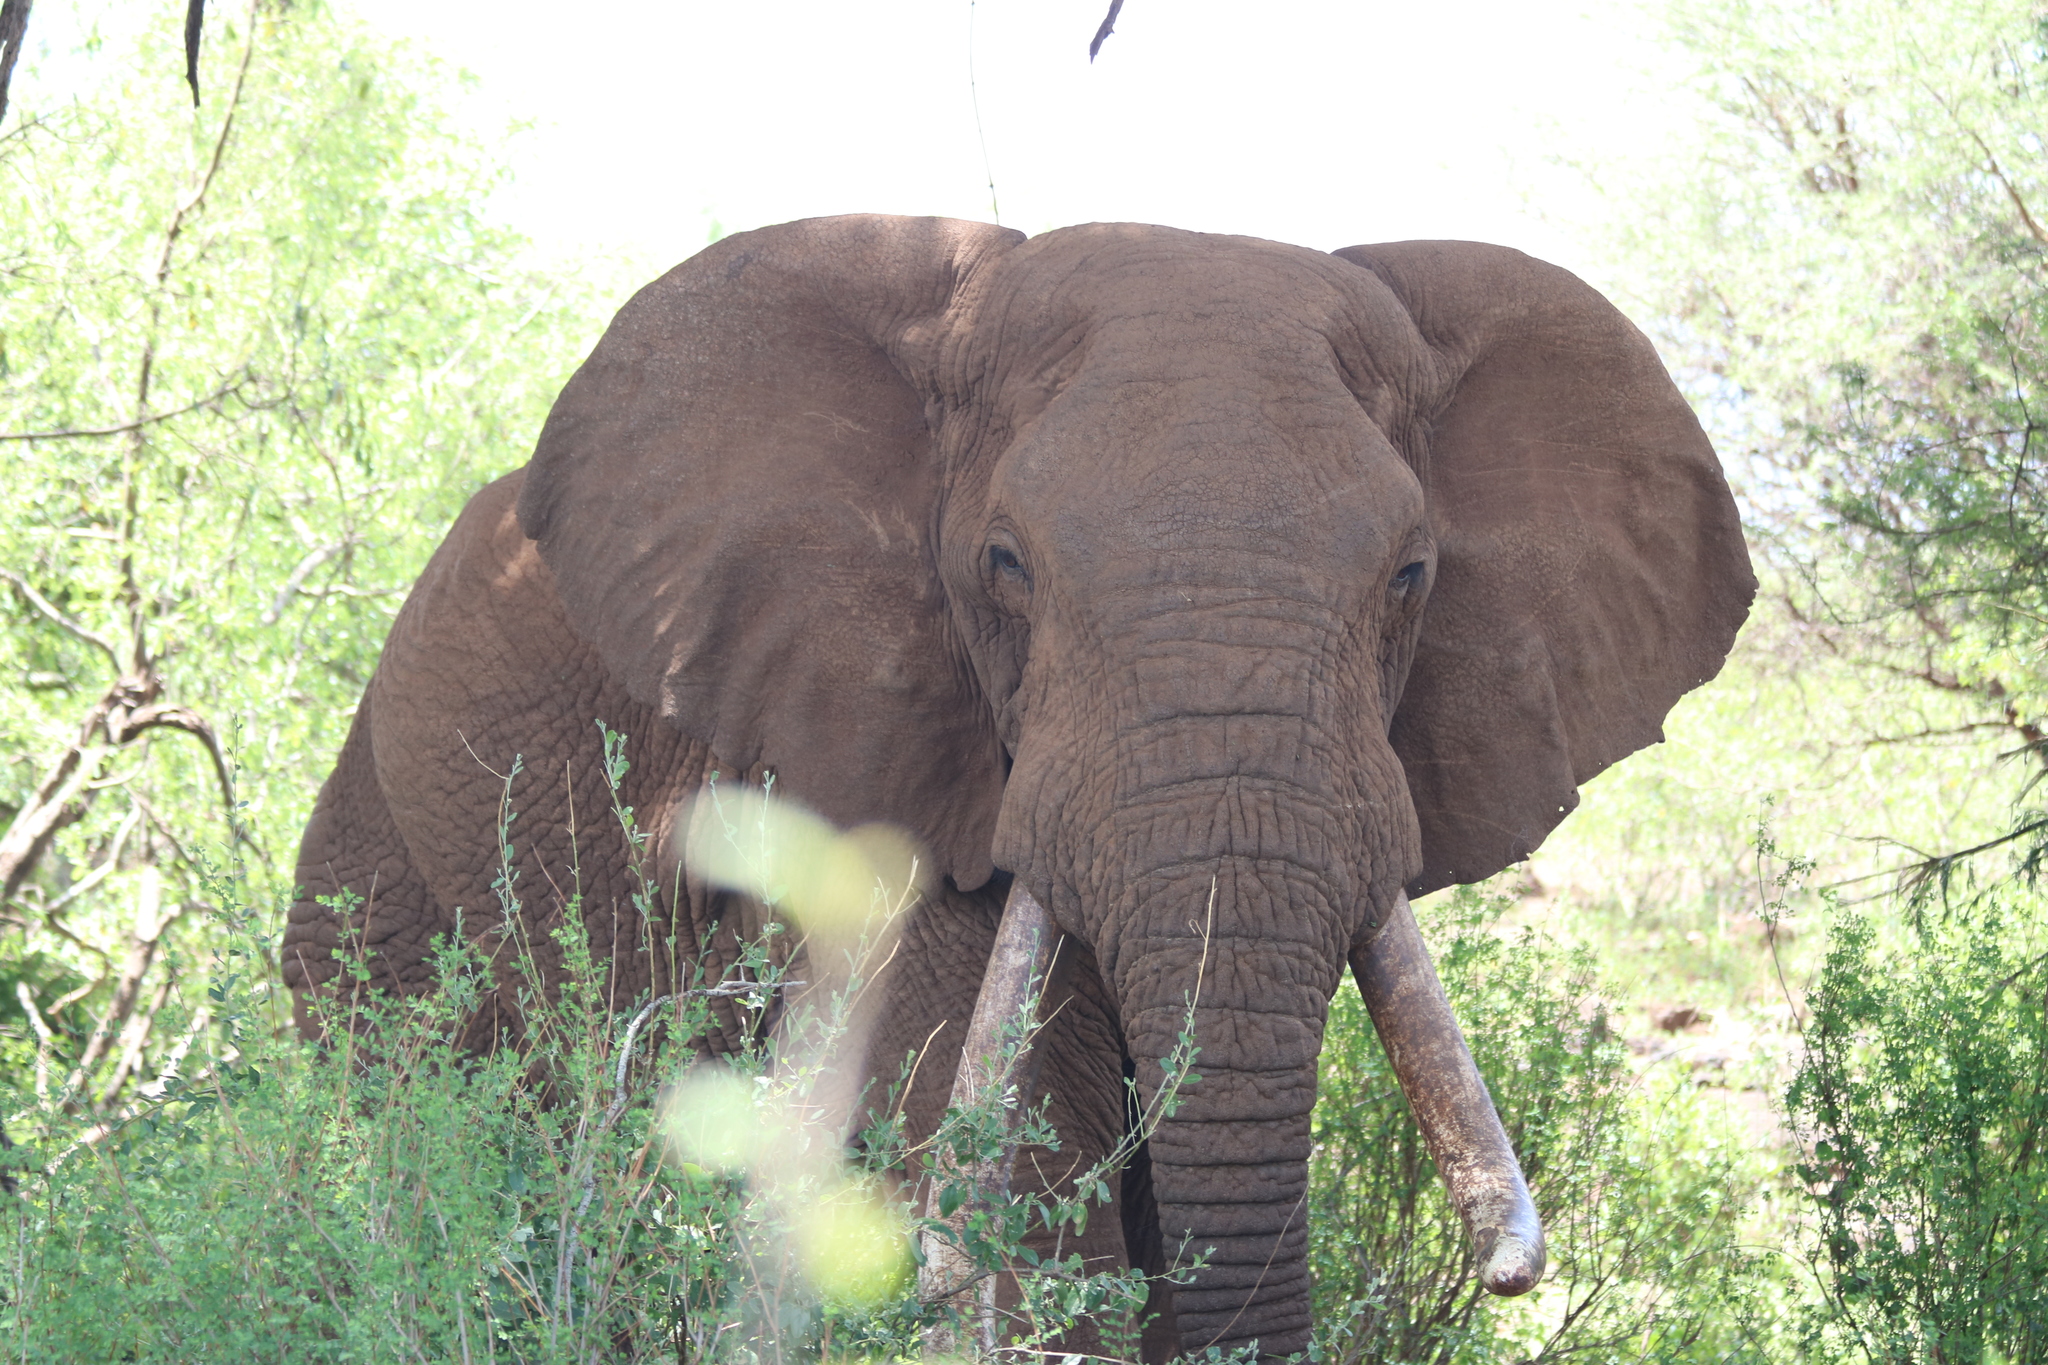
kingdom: Animalia
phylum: Chordata
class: Mammalia
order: Proboscidea
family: Elephantidae
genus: Loxodonta
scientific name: Loxodonta africana
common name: African elephant
